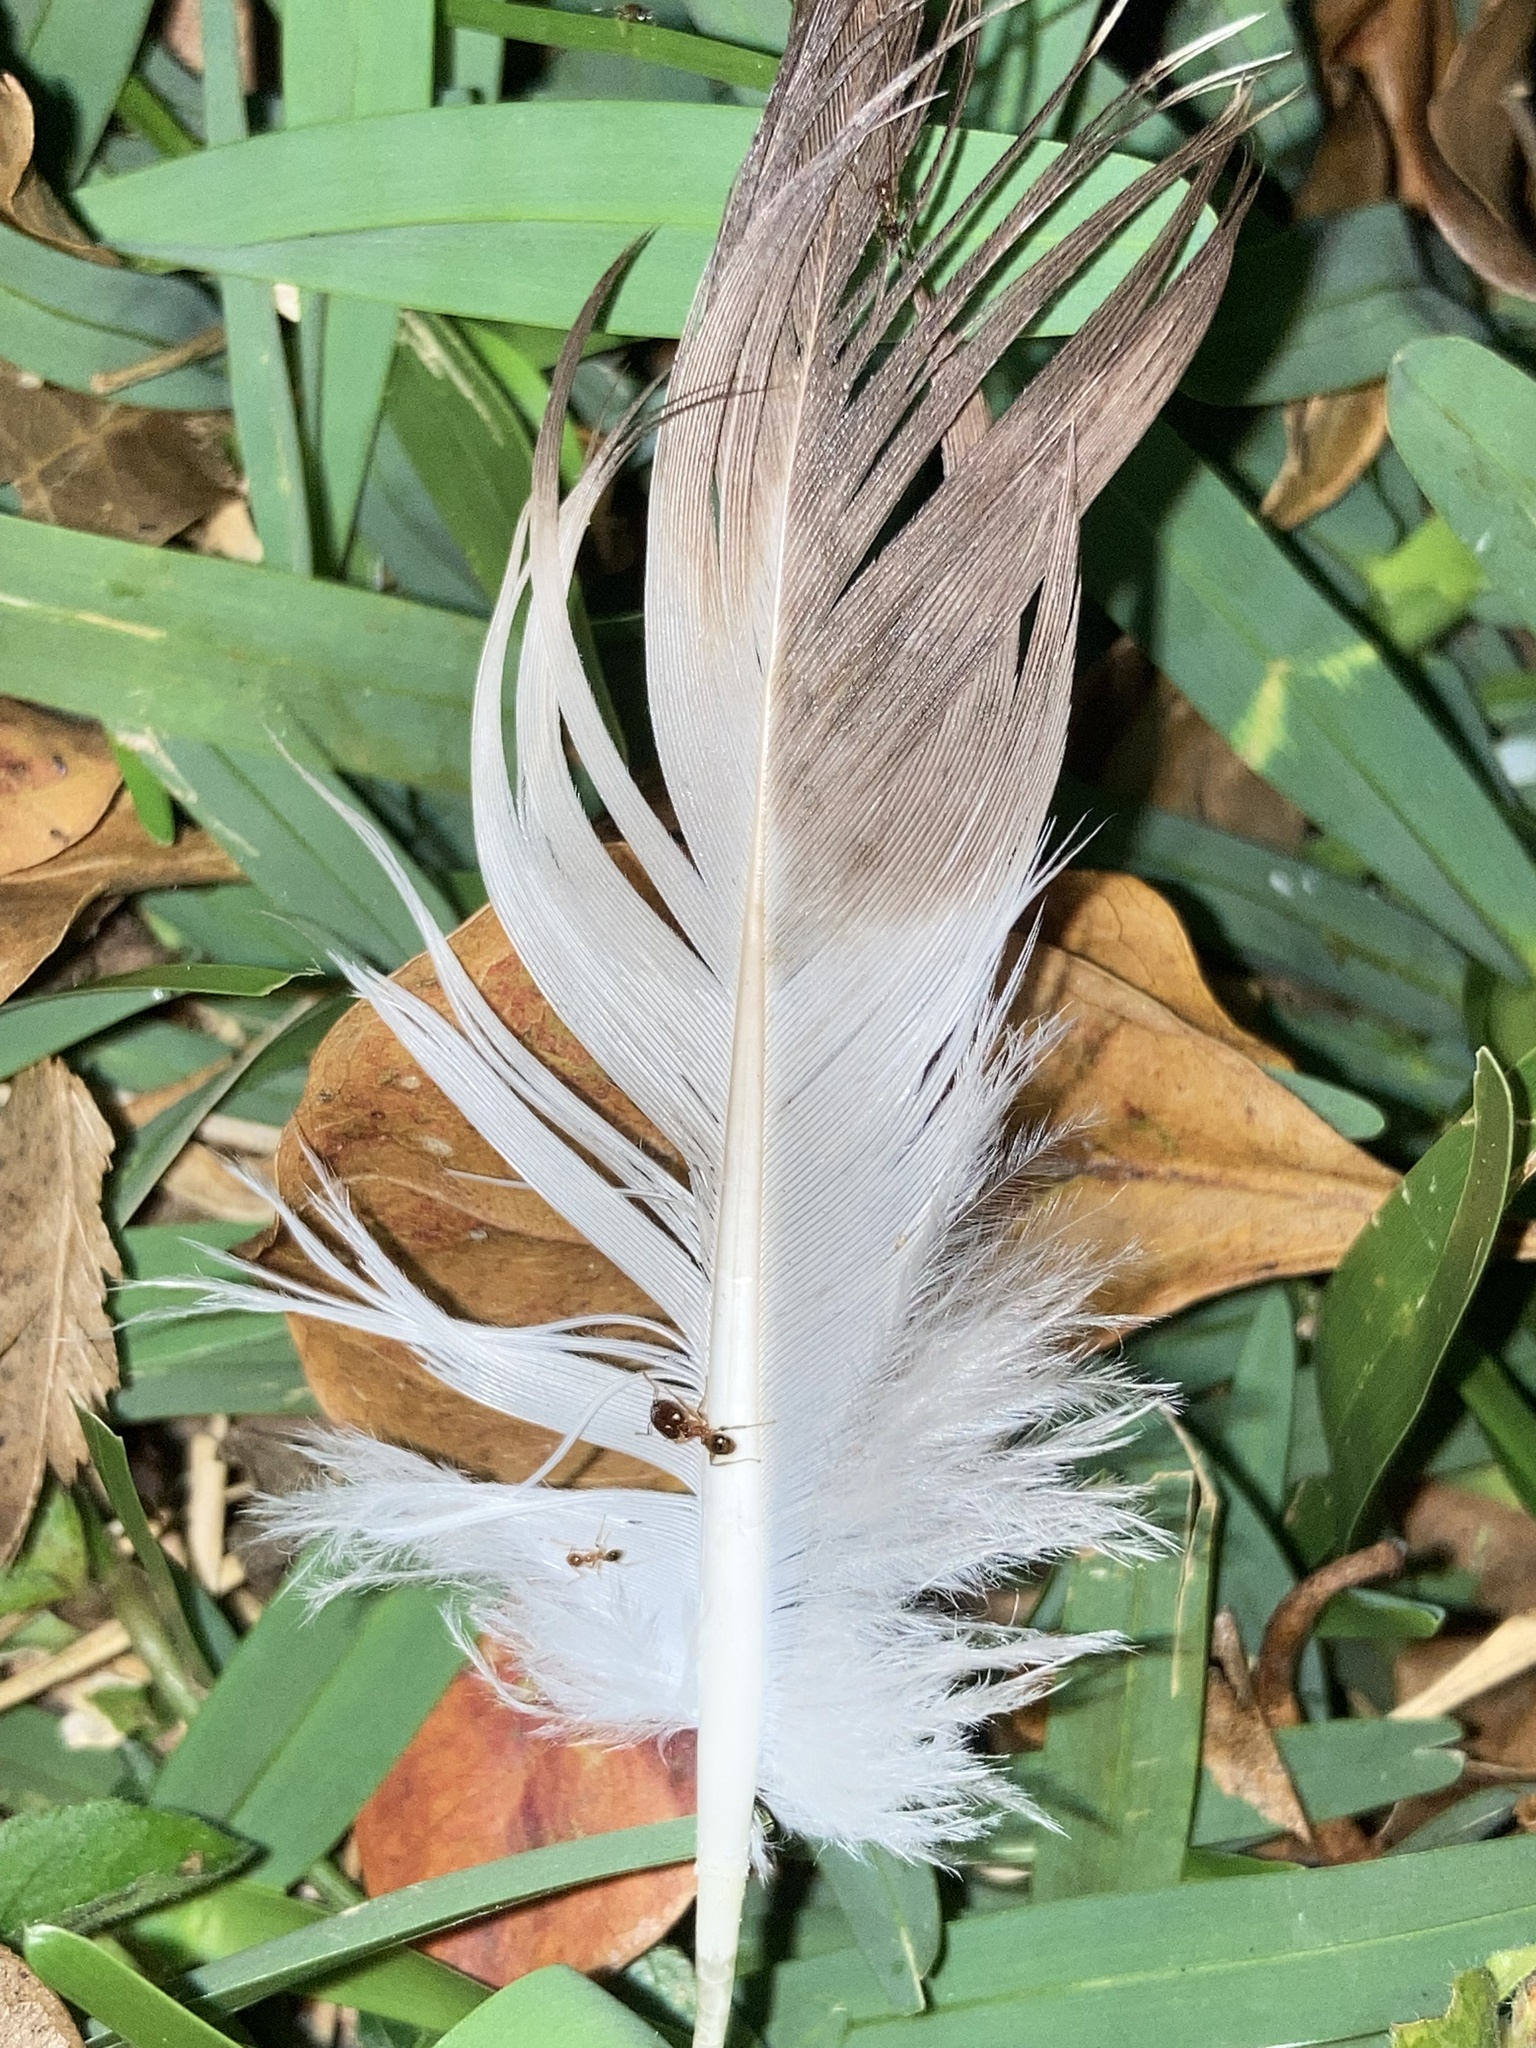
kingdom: Animalia
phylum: Chordata
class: Aves
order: Columbiformes
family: Columbidae
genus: Columba
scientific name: Columba livia
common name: Rock pigeon
